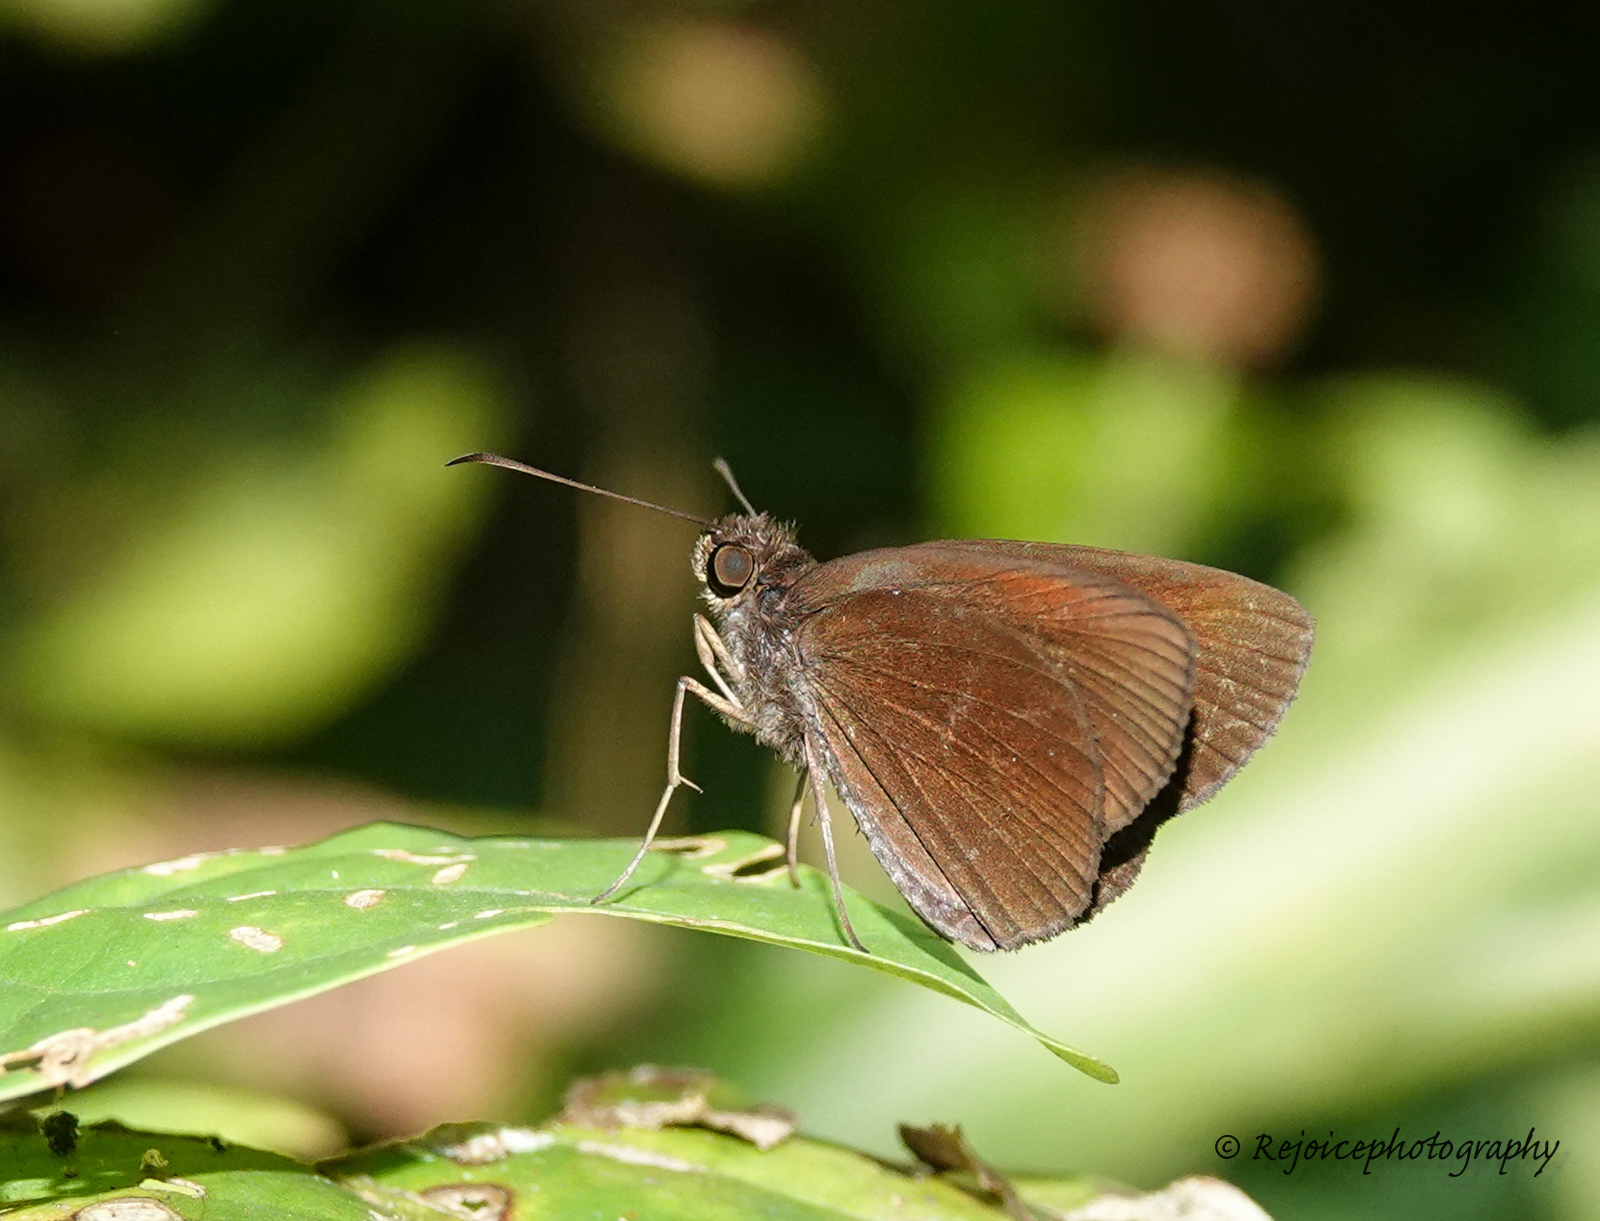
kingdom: Animalia
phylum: Arthropoda
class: Insecta
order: Lepidoptera
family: Hesperiidae
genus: Ancistroides
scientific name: Ancistroides nigrita
